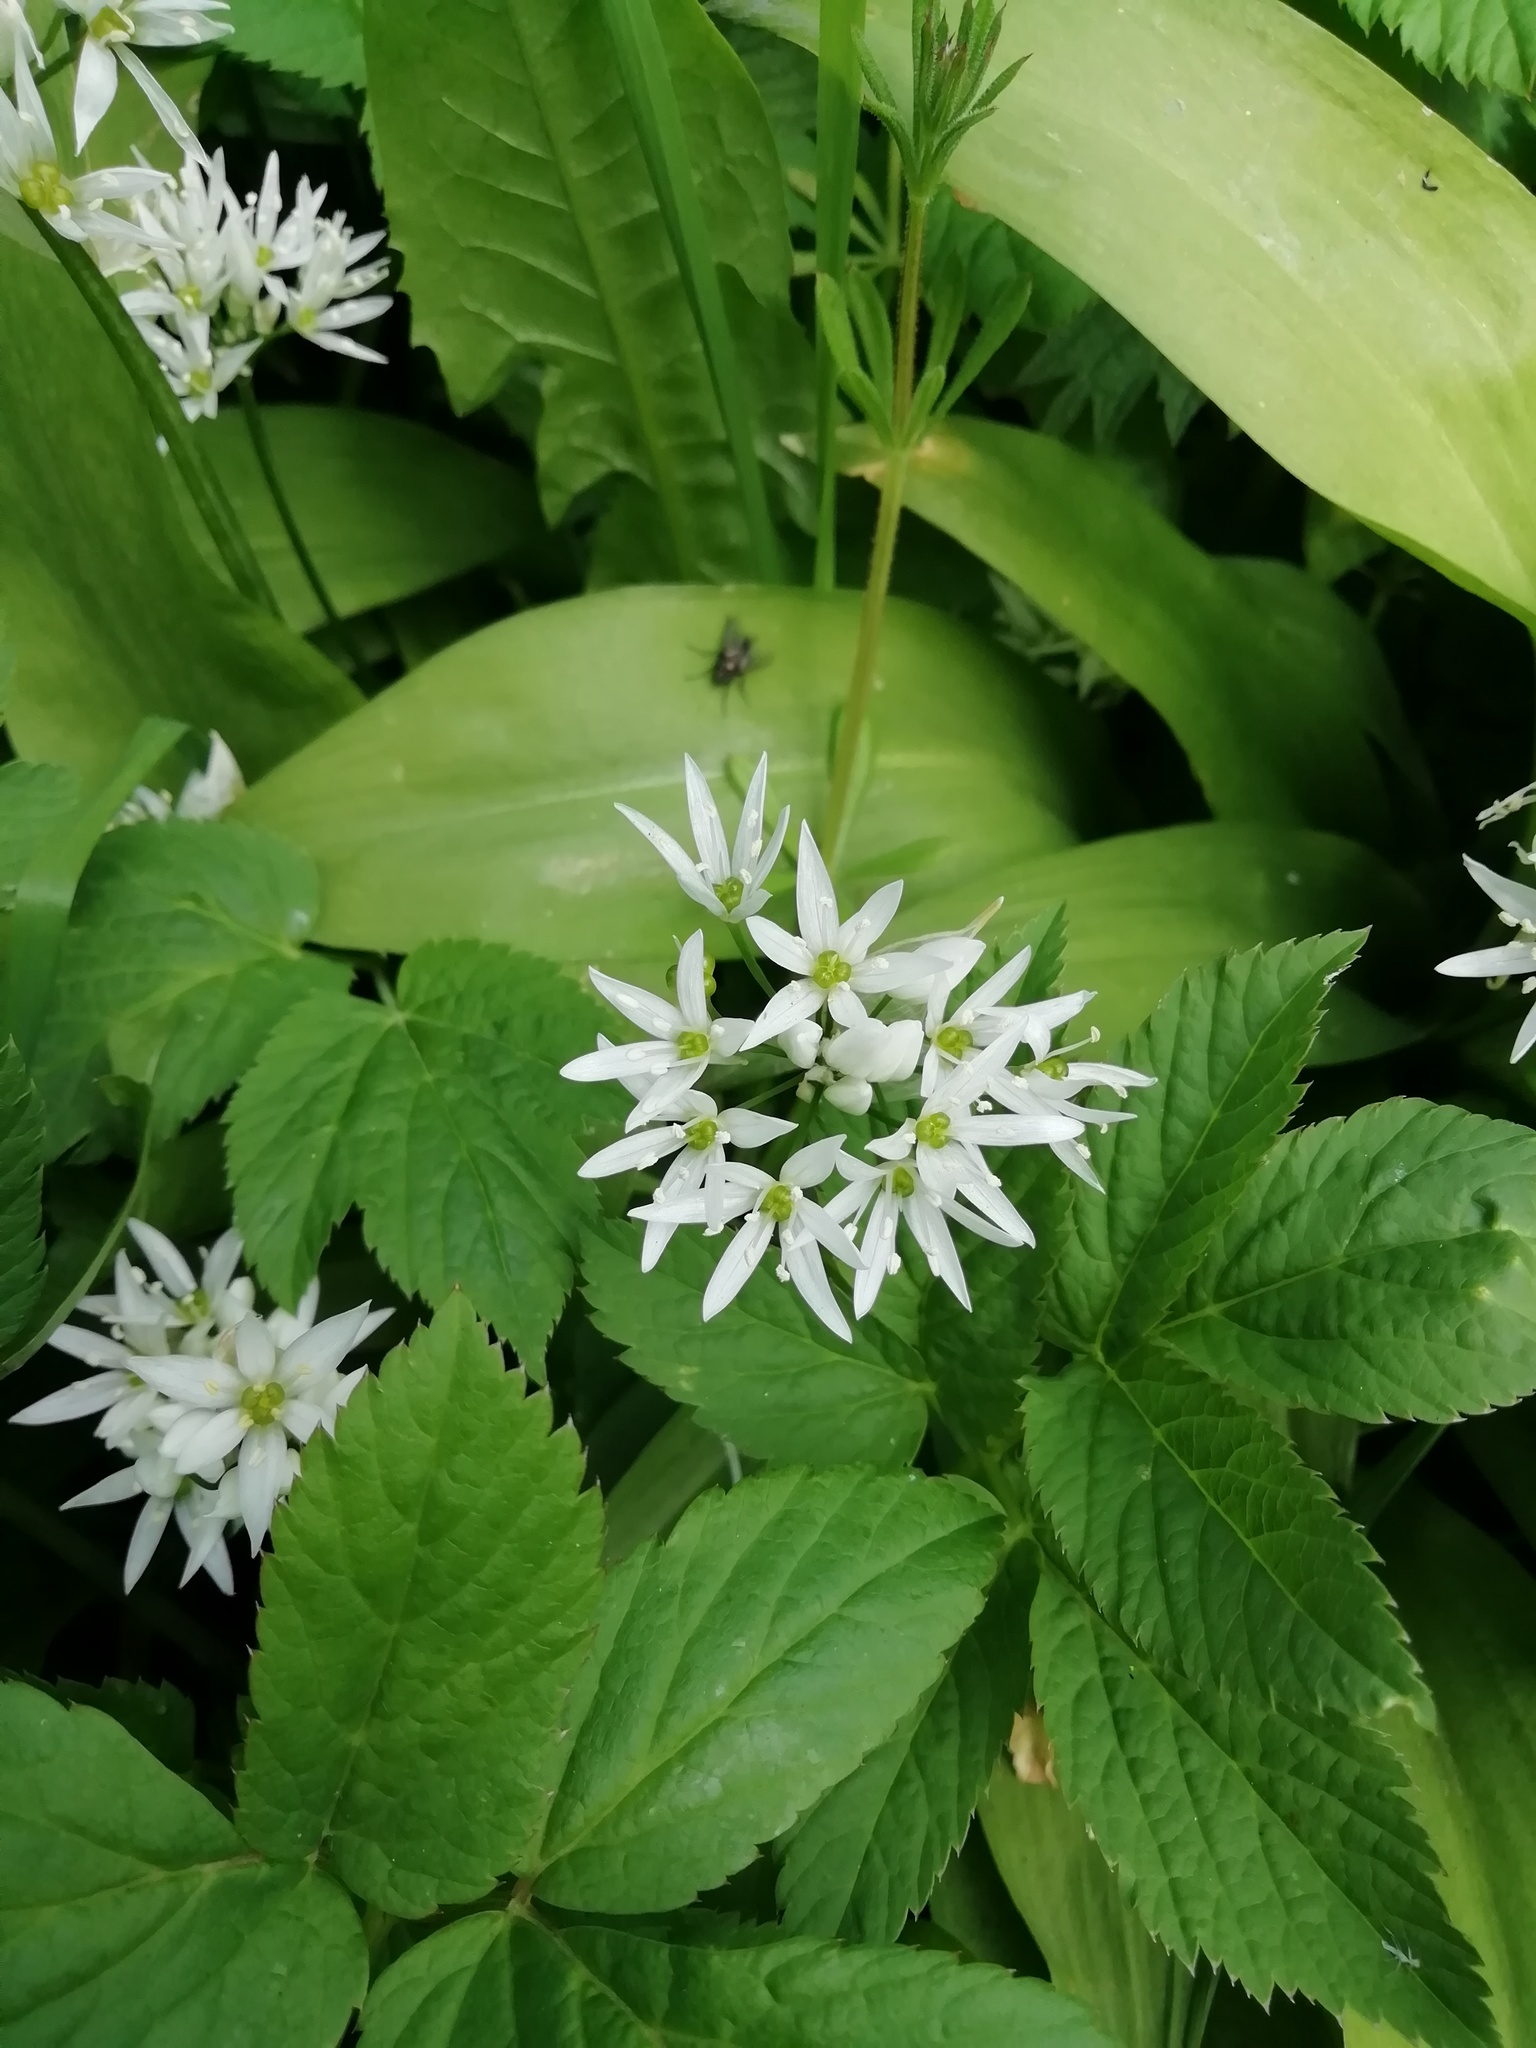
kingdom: Plantae
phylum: Tracheophyta
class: Liliopsida
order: Asparagales
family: Amaryllidaceae
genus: Allium
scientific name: Allium ursinum
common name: Ramsons
